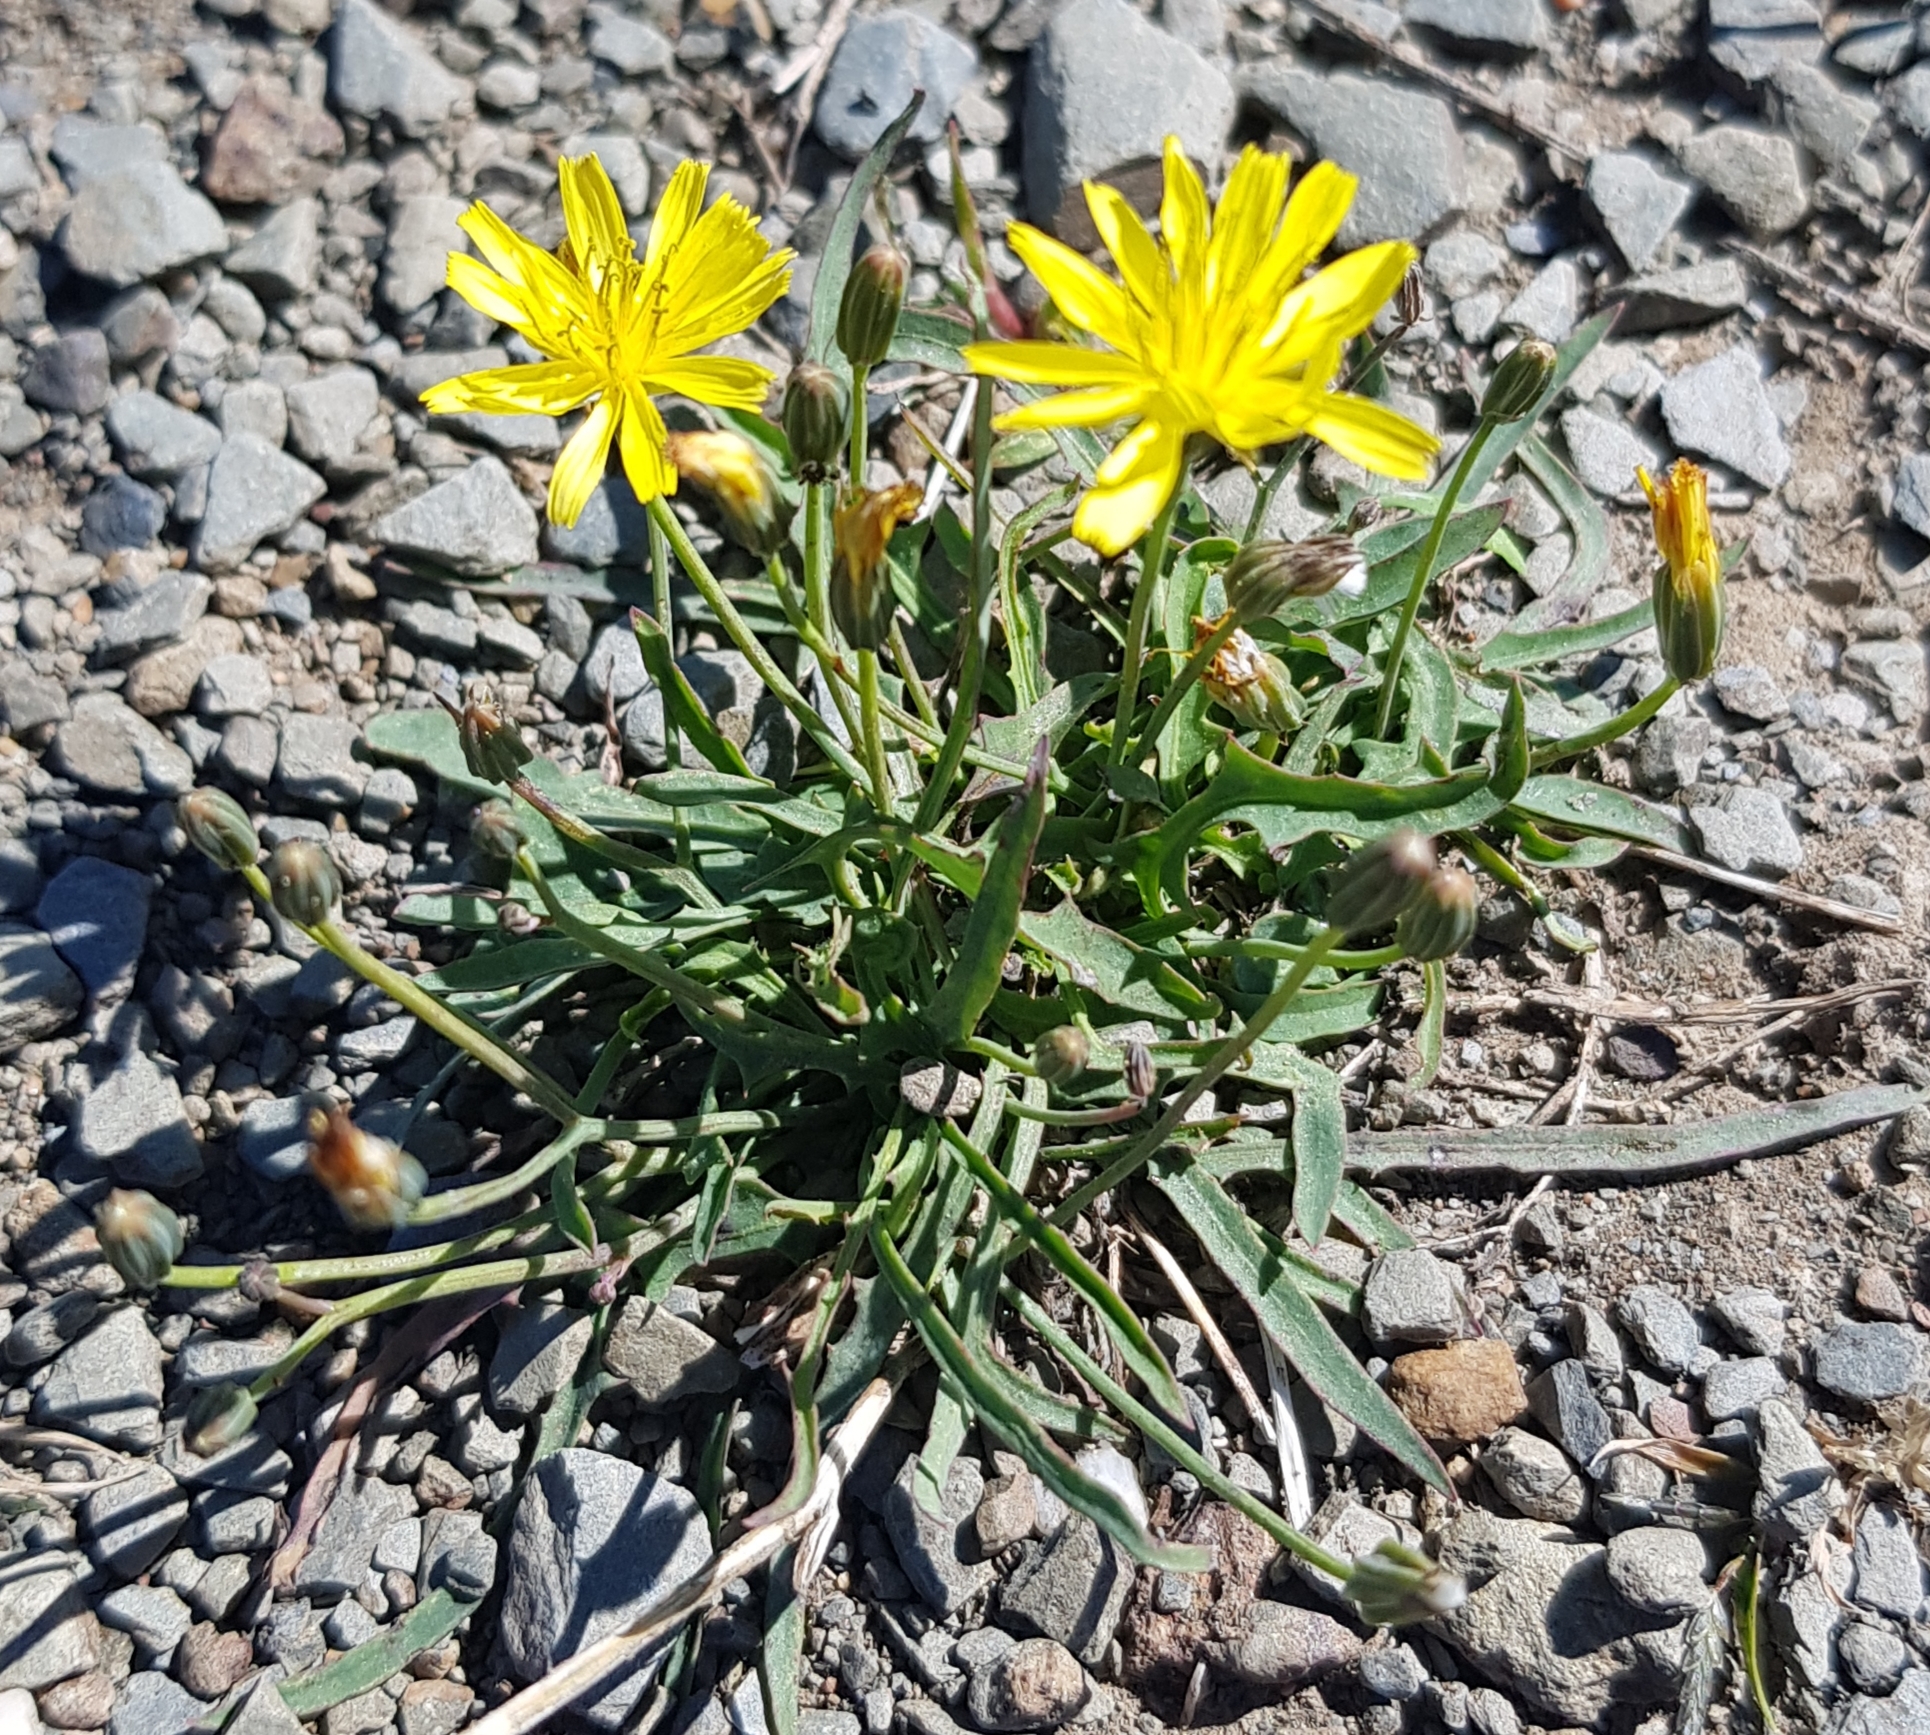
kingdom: Plantae
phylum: Tracheophyta
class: Magnoliopsida
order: Asterales
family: Asteraceae
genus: Crepidiastrum
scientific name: Crepidiastrum tenuifolium
